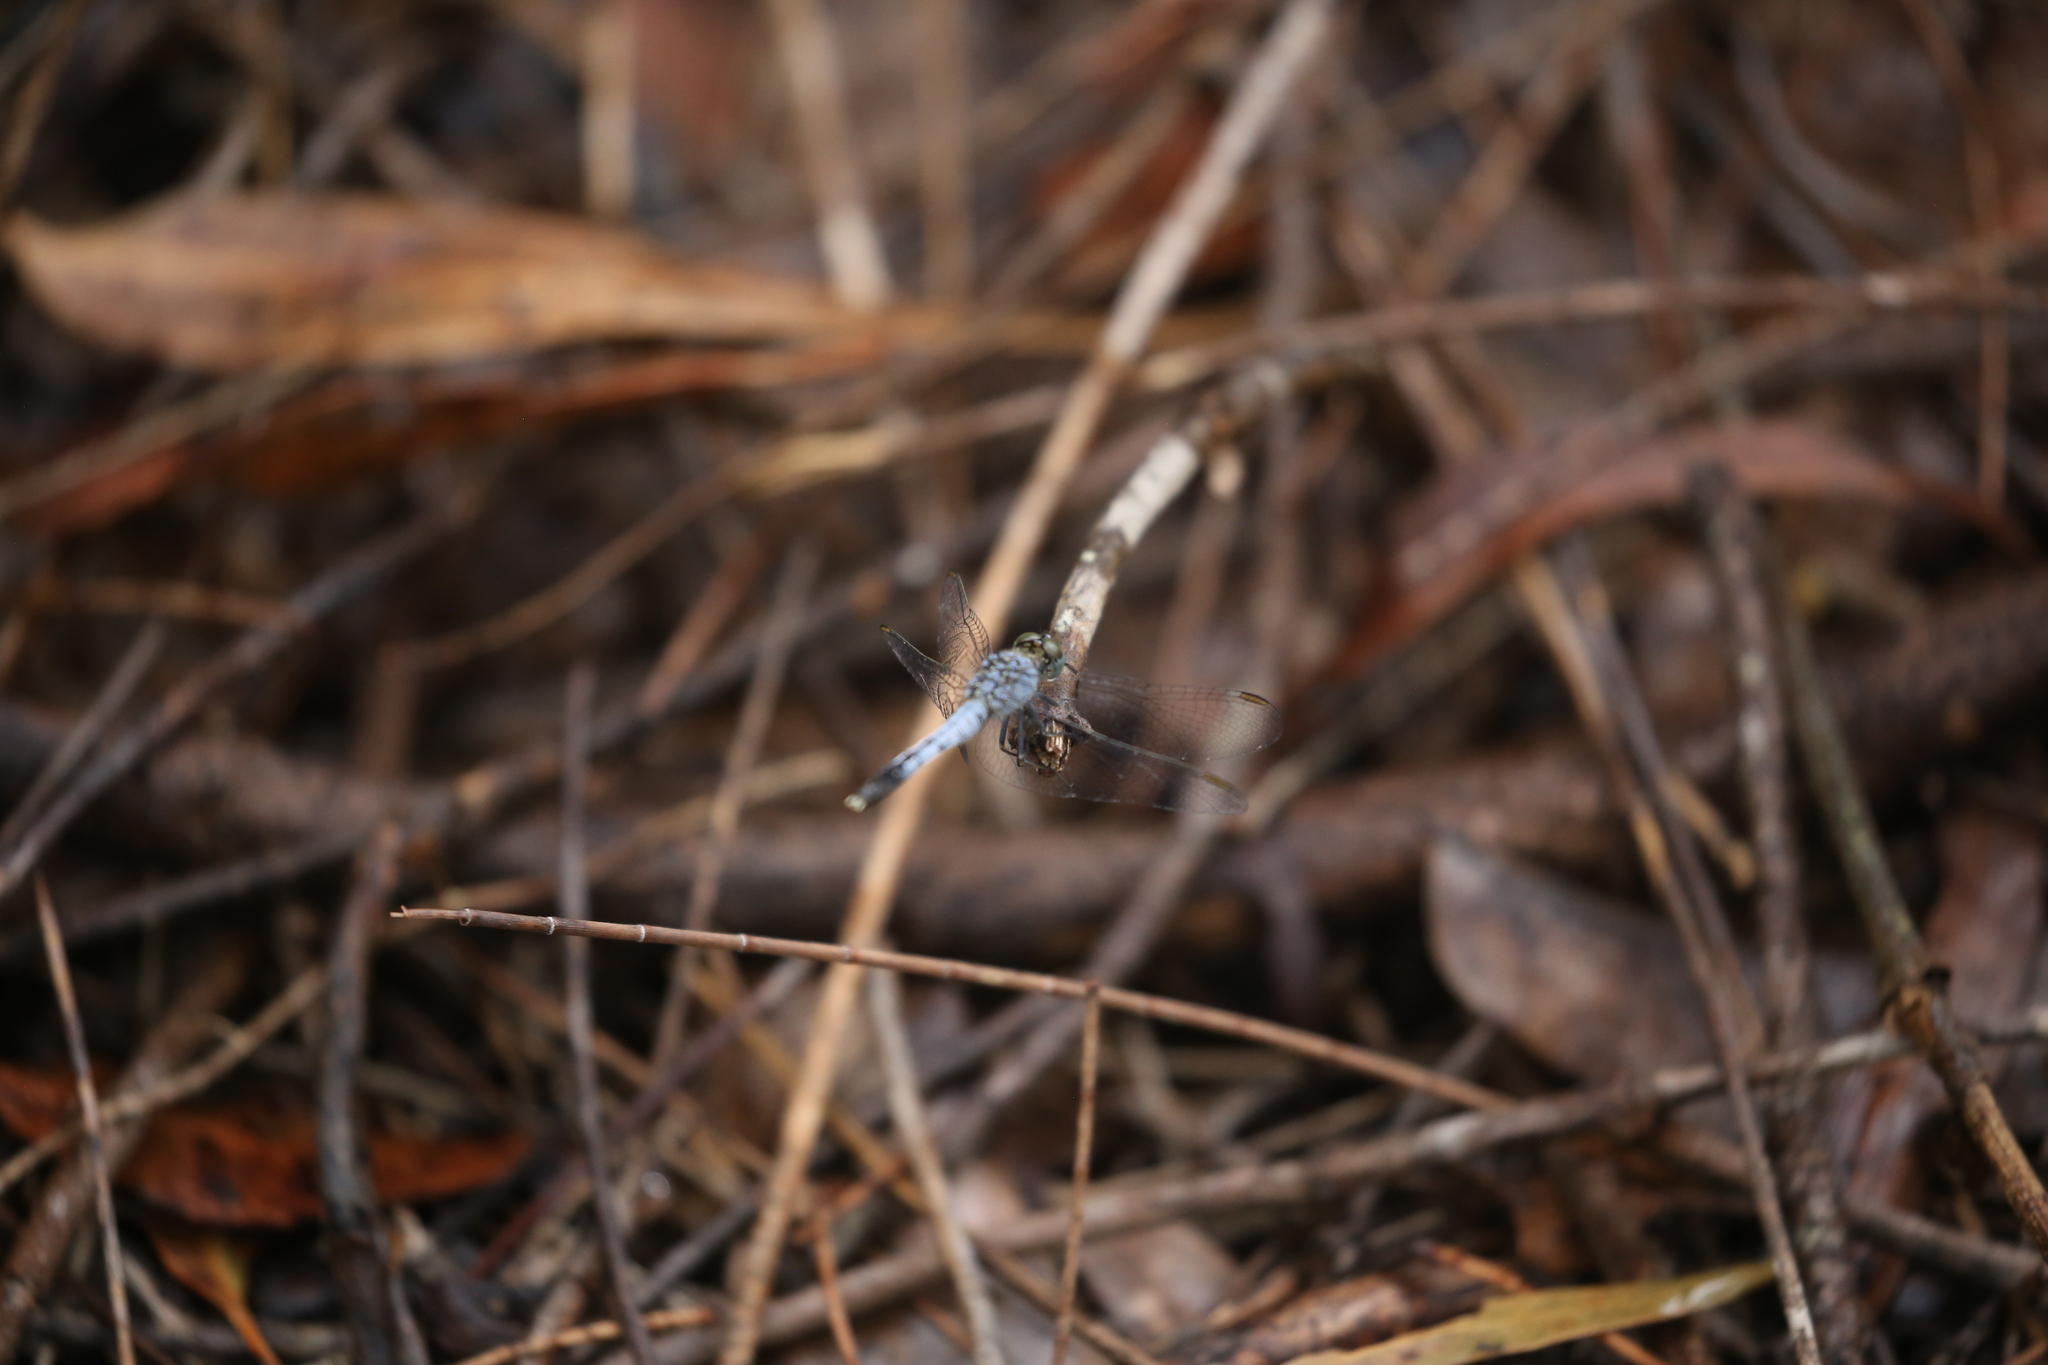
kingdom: Animalia
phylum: Arthropoda
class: Insecta
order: Odonata
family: Libellulidae
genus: Diplacodes
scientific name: Diplacodes trivialis
